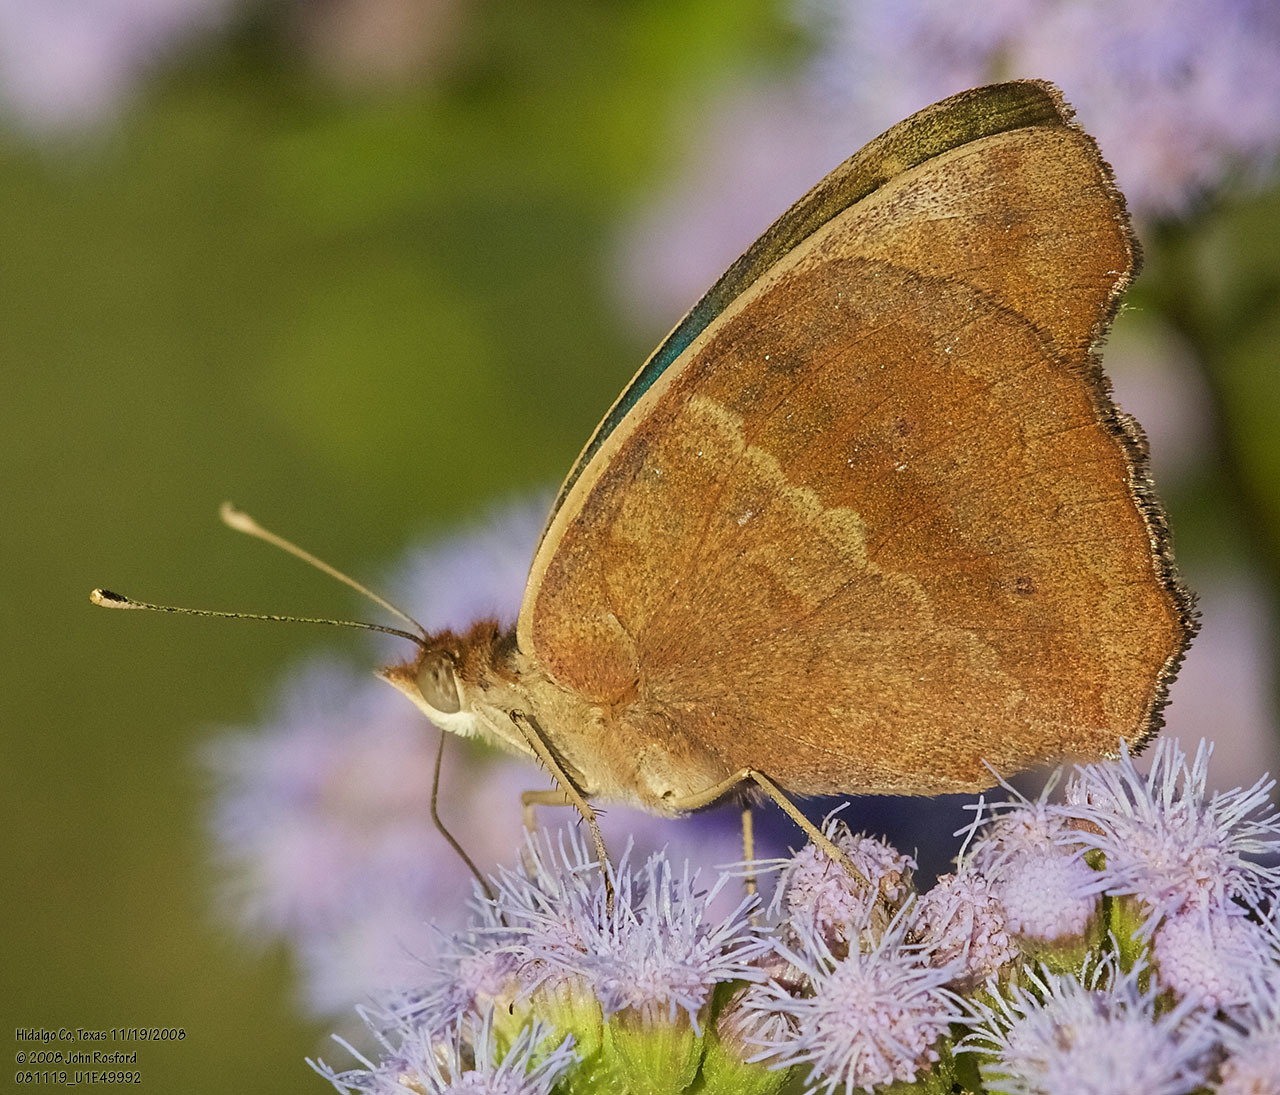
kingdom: Animalia
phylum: Arthropoda
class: Insecta
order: Lepidoptera
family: Nymphalidae
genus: Junonia
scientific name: Junonia stemosa
